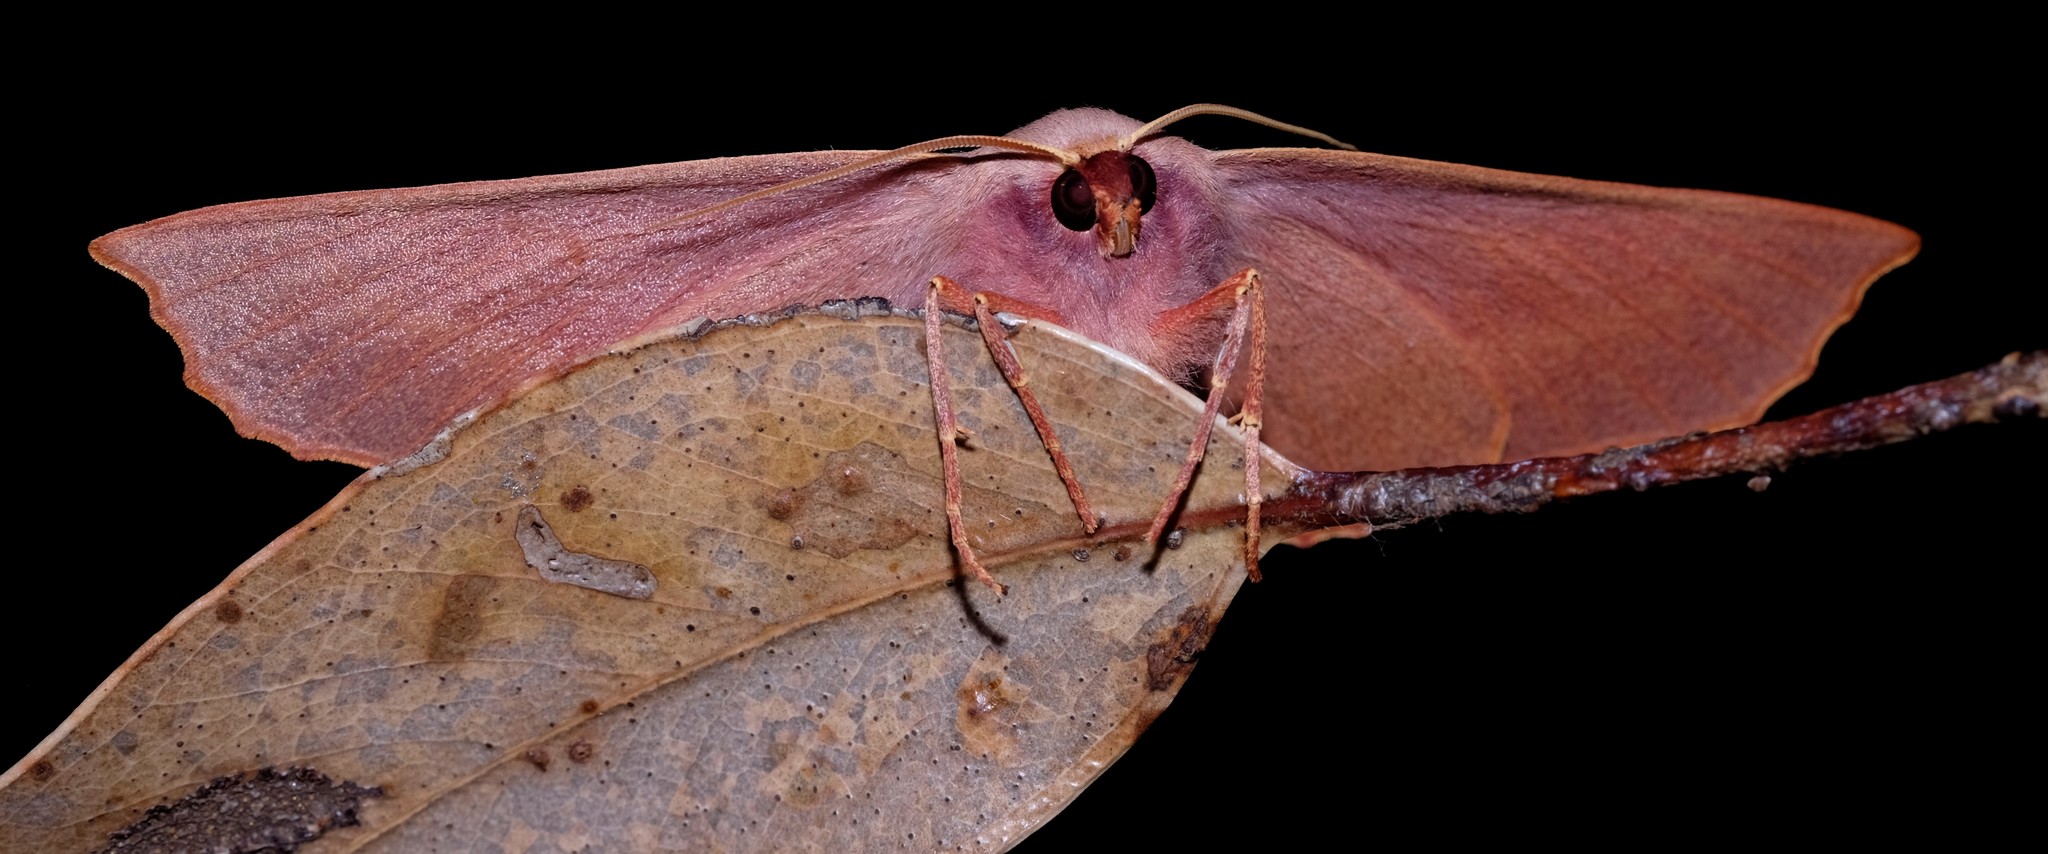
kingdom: Animalia
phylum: Arthropoda
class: Insecta
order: Lepidoptera
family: Geometridae
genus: Monoctenia
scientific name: Monoctenia
